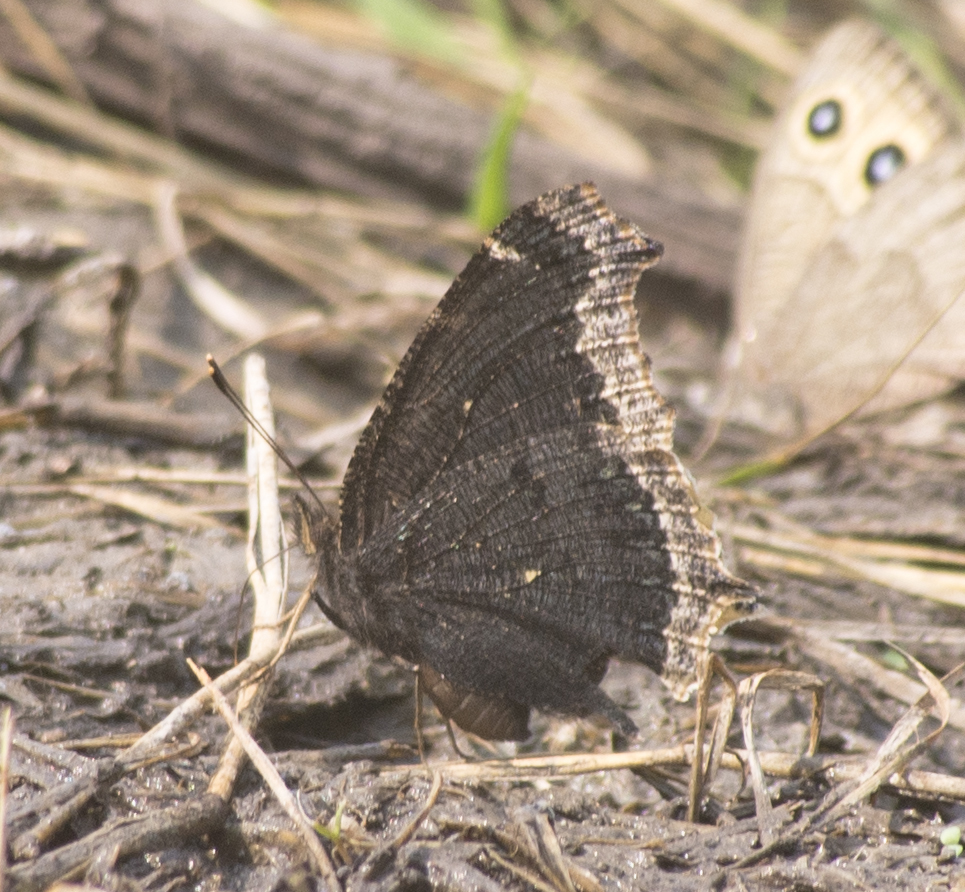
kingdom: Animalia
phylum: Arthropoda
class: Insecta
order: Lepidoptera
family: Nymphalidae
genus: Nymphalis
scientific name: Nymphalis antiopa
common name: Camberwell beauty
